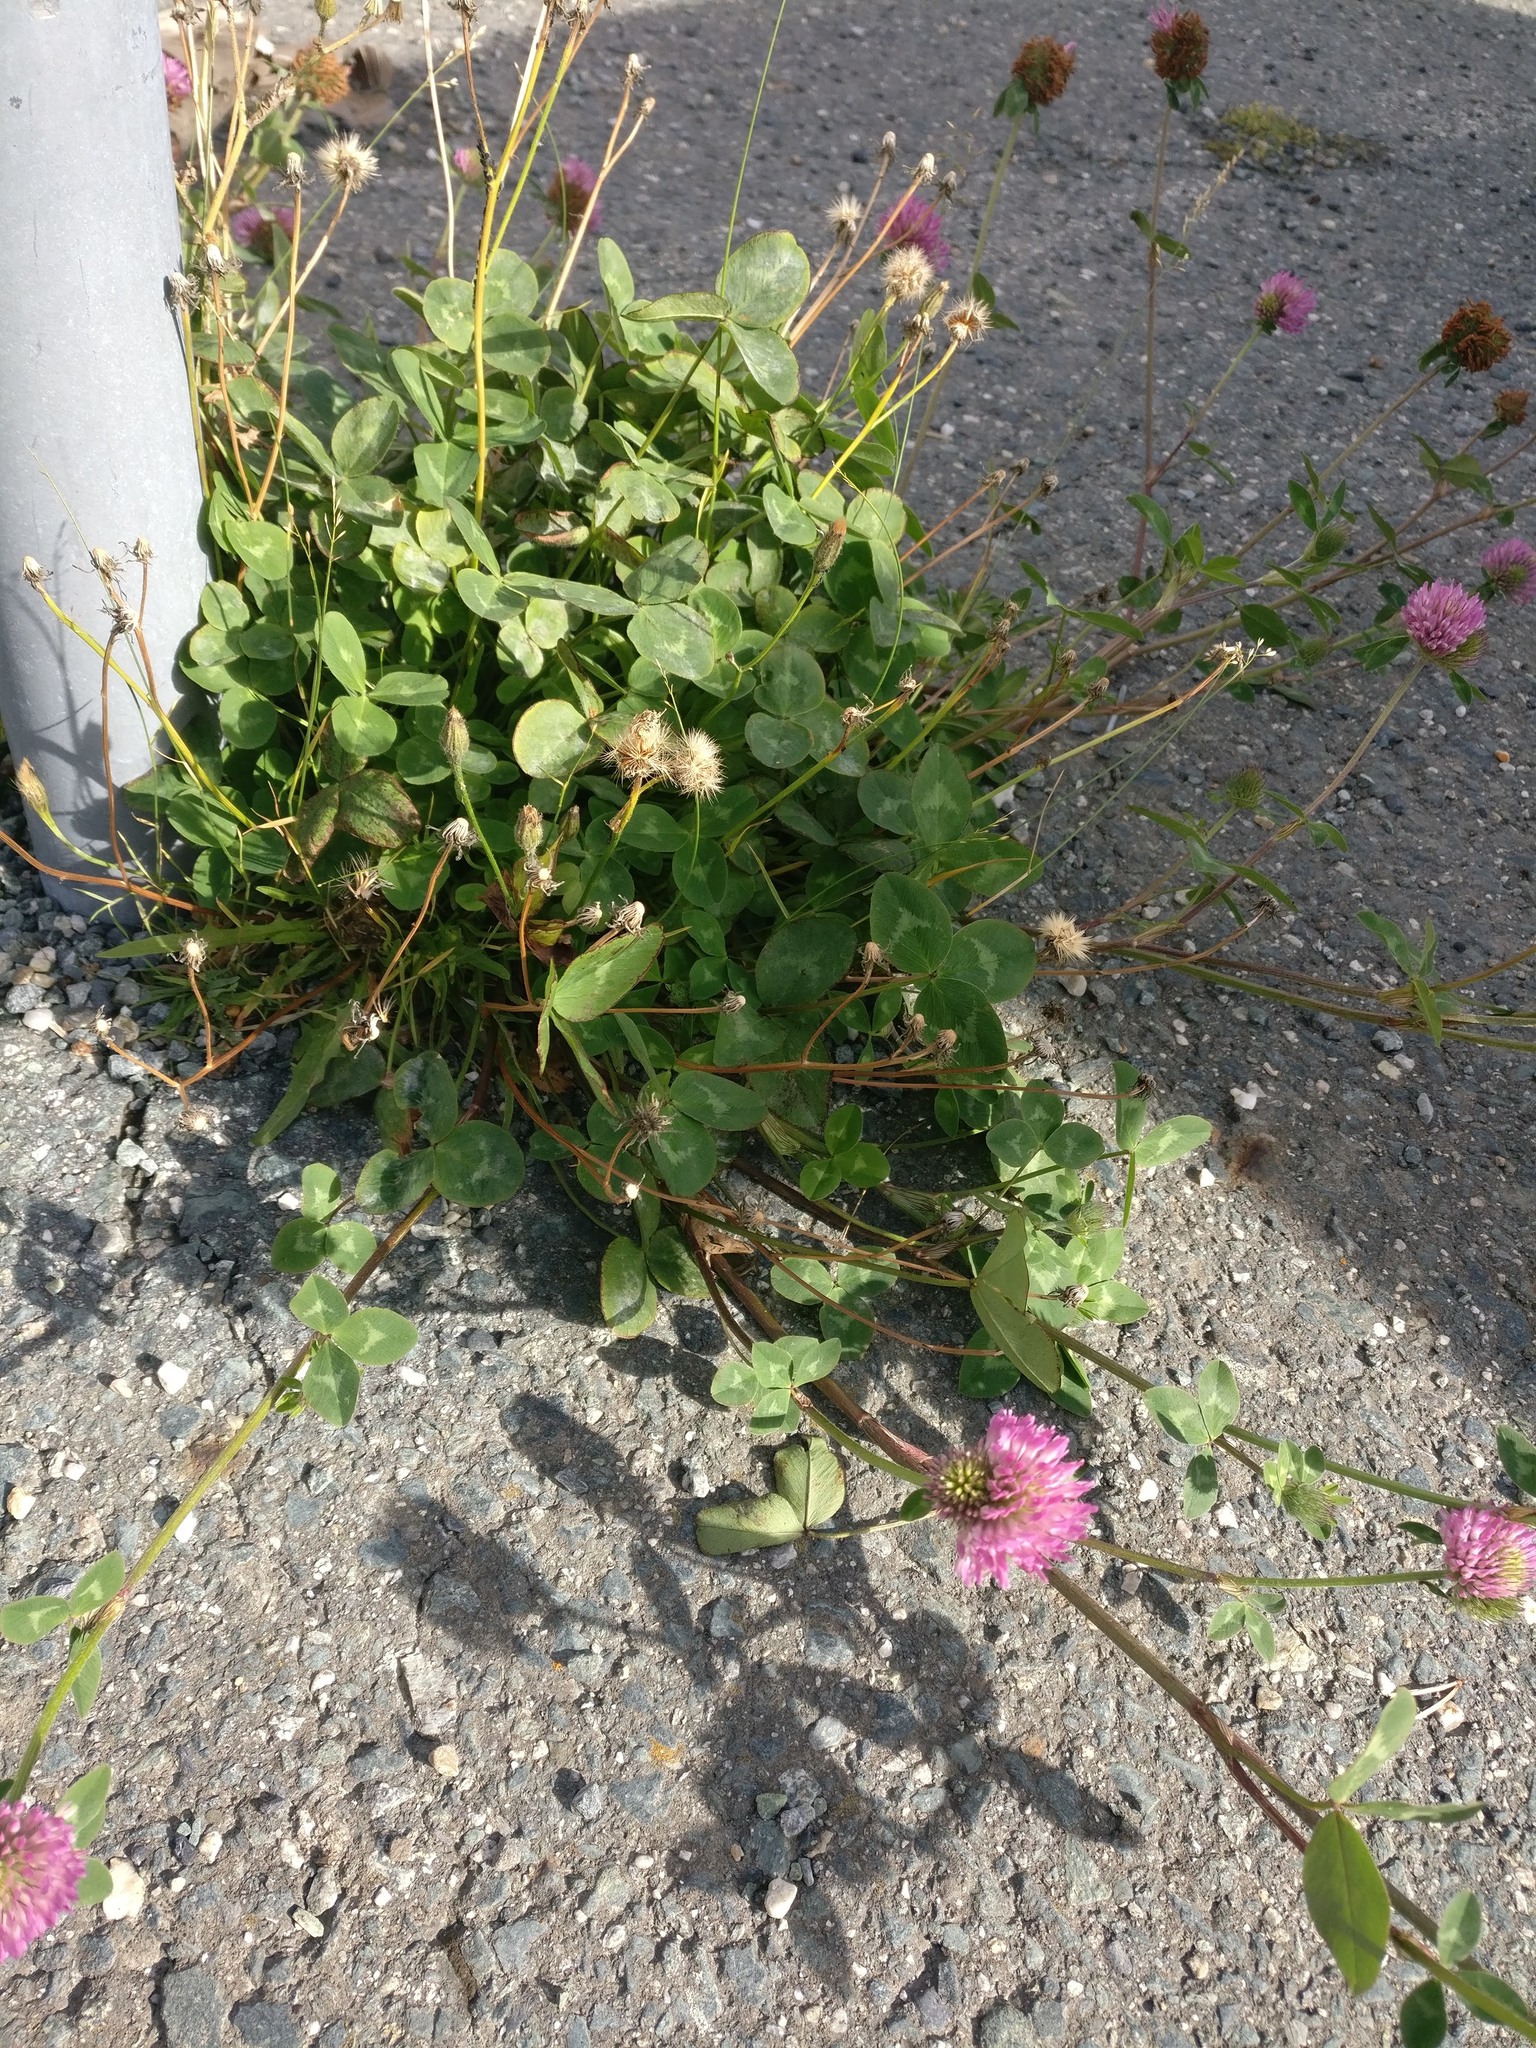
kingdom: Plantae
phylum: Tracheophyta
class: Magnoliopsida
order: Fabales
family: Fabaceae
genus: Trifolium
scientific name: Trifolium pratense
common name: Red clover
